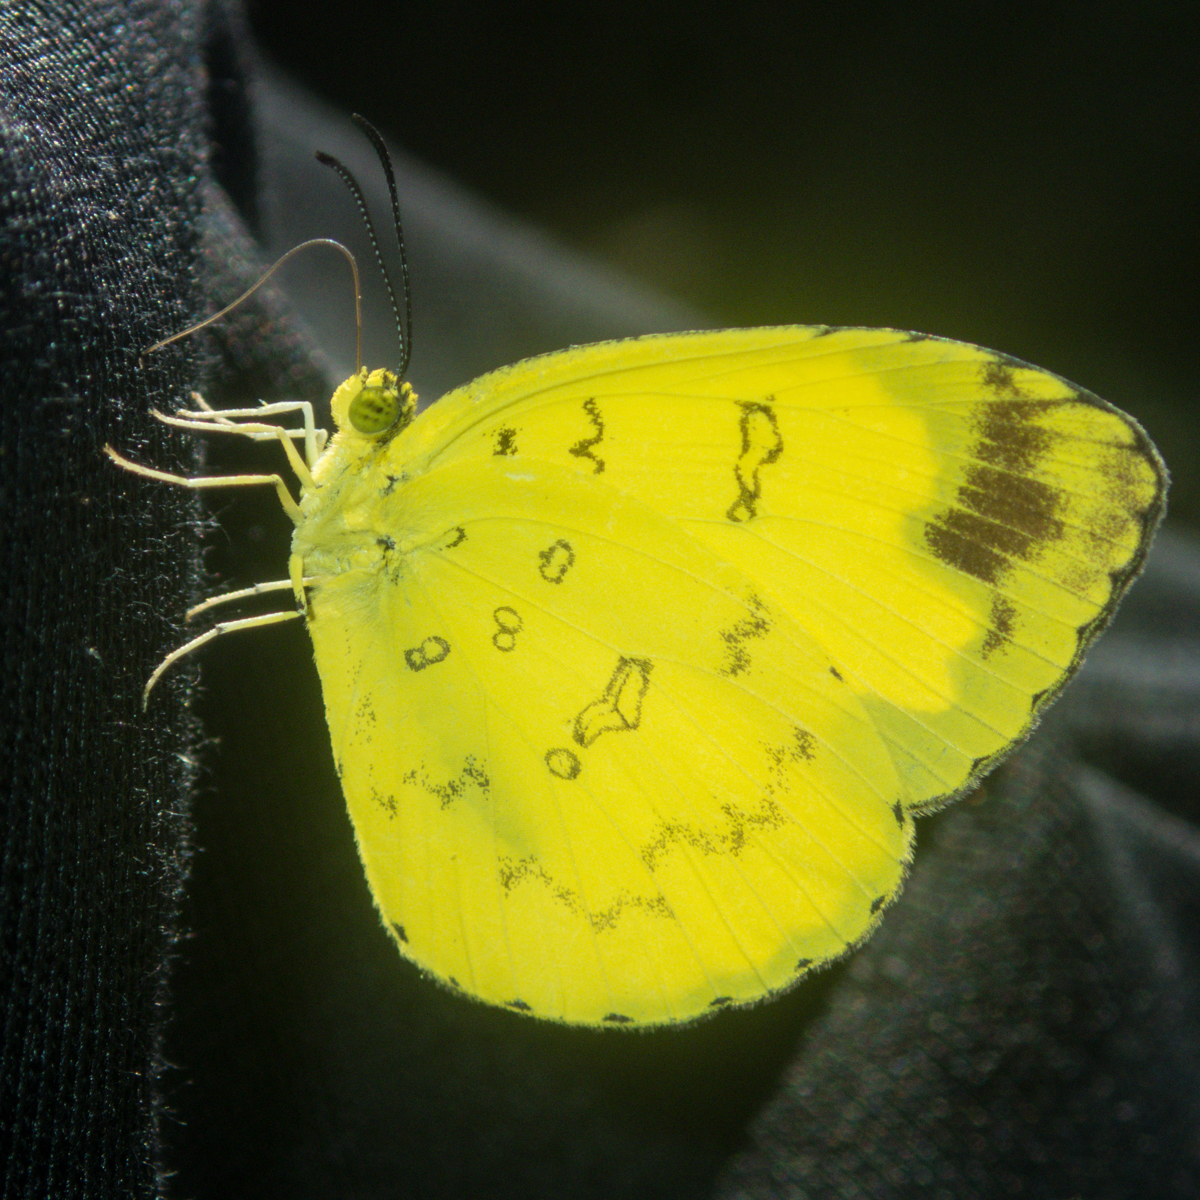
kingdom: Animalia
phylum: Arthropoda
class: Insecta
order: Lepidoptera
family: Pieridae
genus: Eurema
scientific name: Eurema simulatrix
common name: Hill grass yellow
